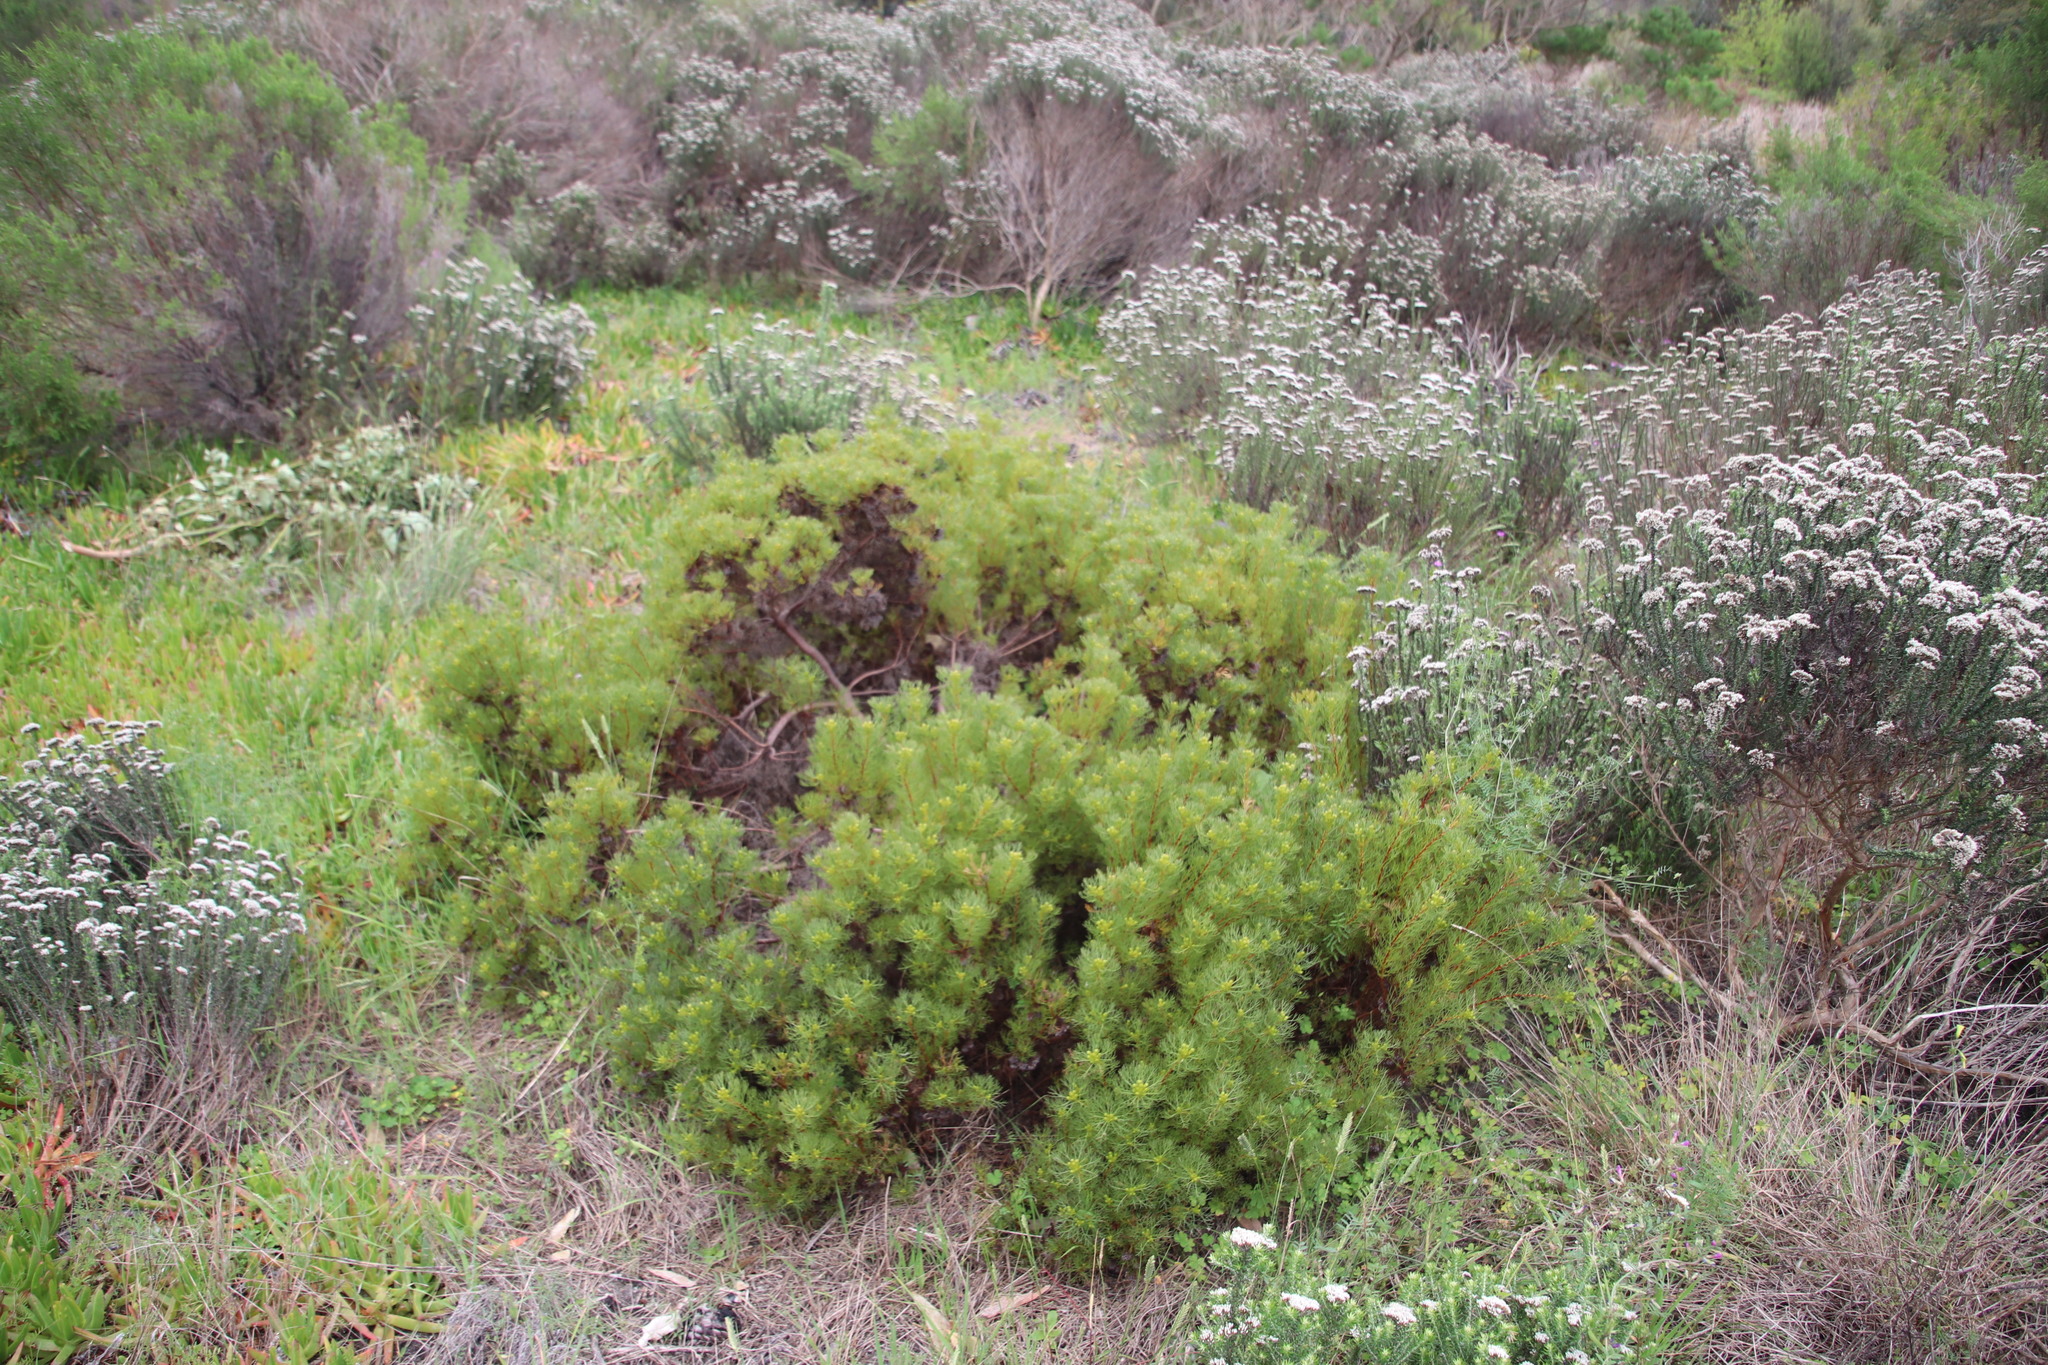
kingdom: Plantae
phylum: Tracheophyta
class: Magnoliopsida
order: Proteales
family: Proteaceae
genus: Serruria
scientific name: Serruria
